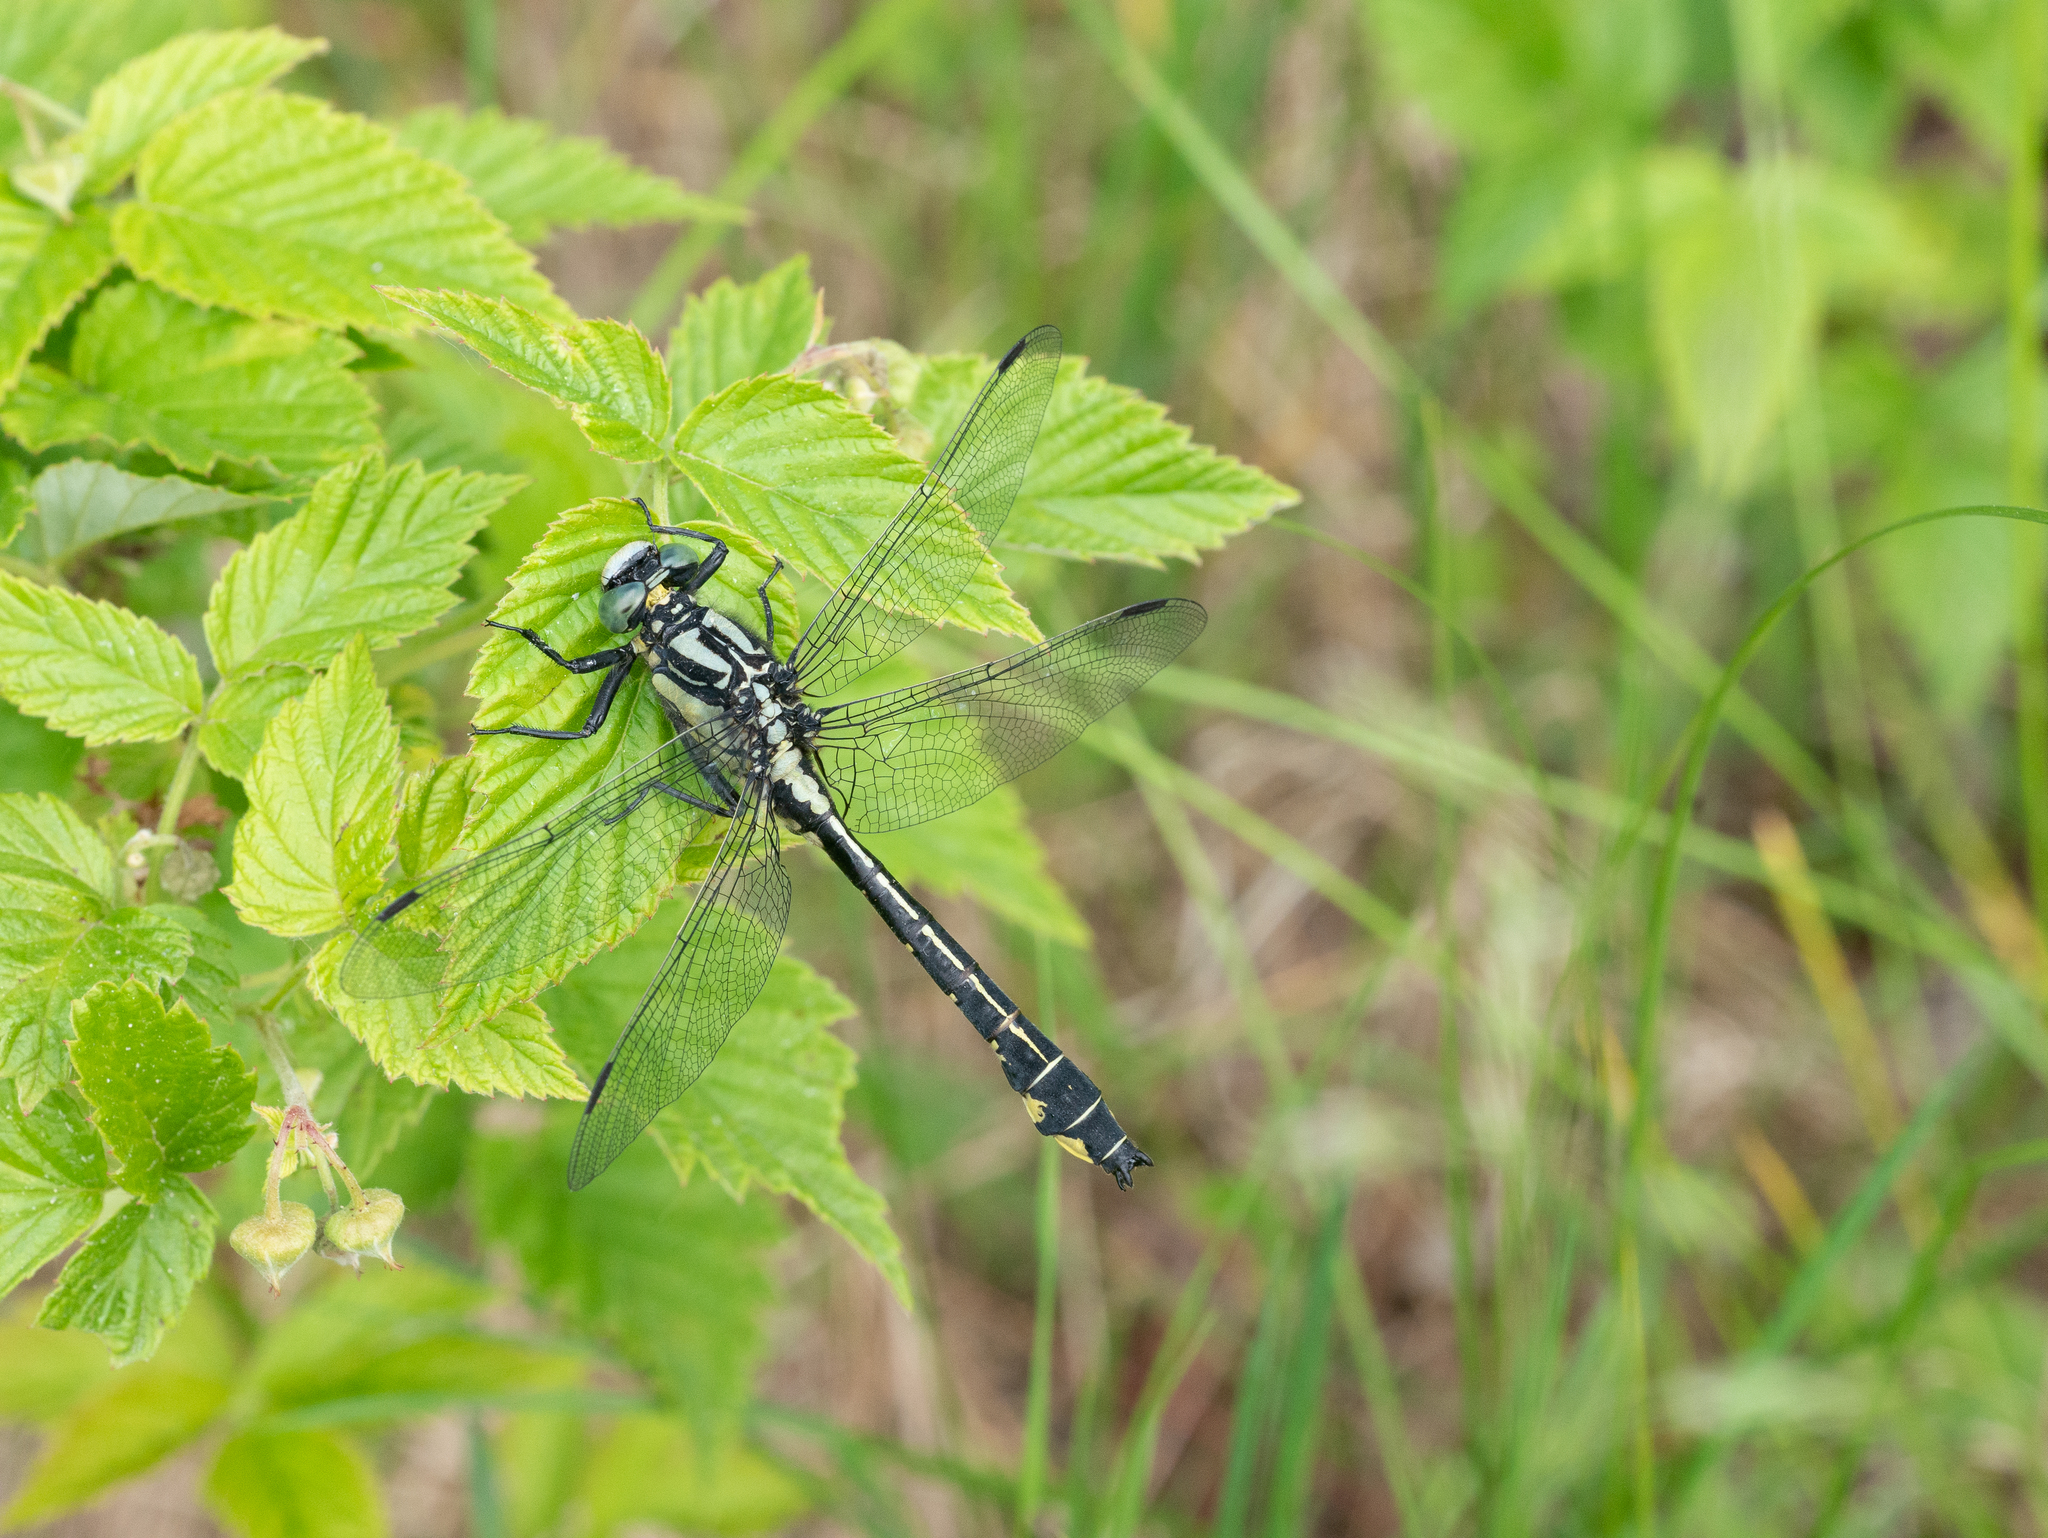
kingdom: Animalia
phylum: Arthropoda
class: Insecta
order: Odonata
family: Gomphidae
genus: Gomphus
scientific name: Gomphus vulgatissimus
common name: Club-tailed dragonfly
